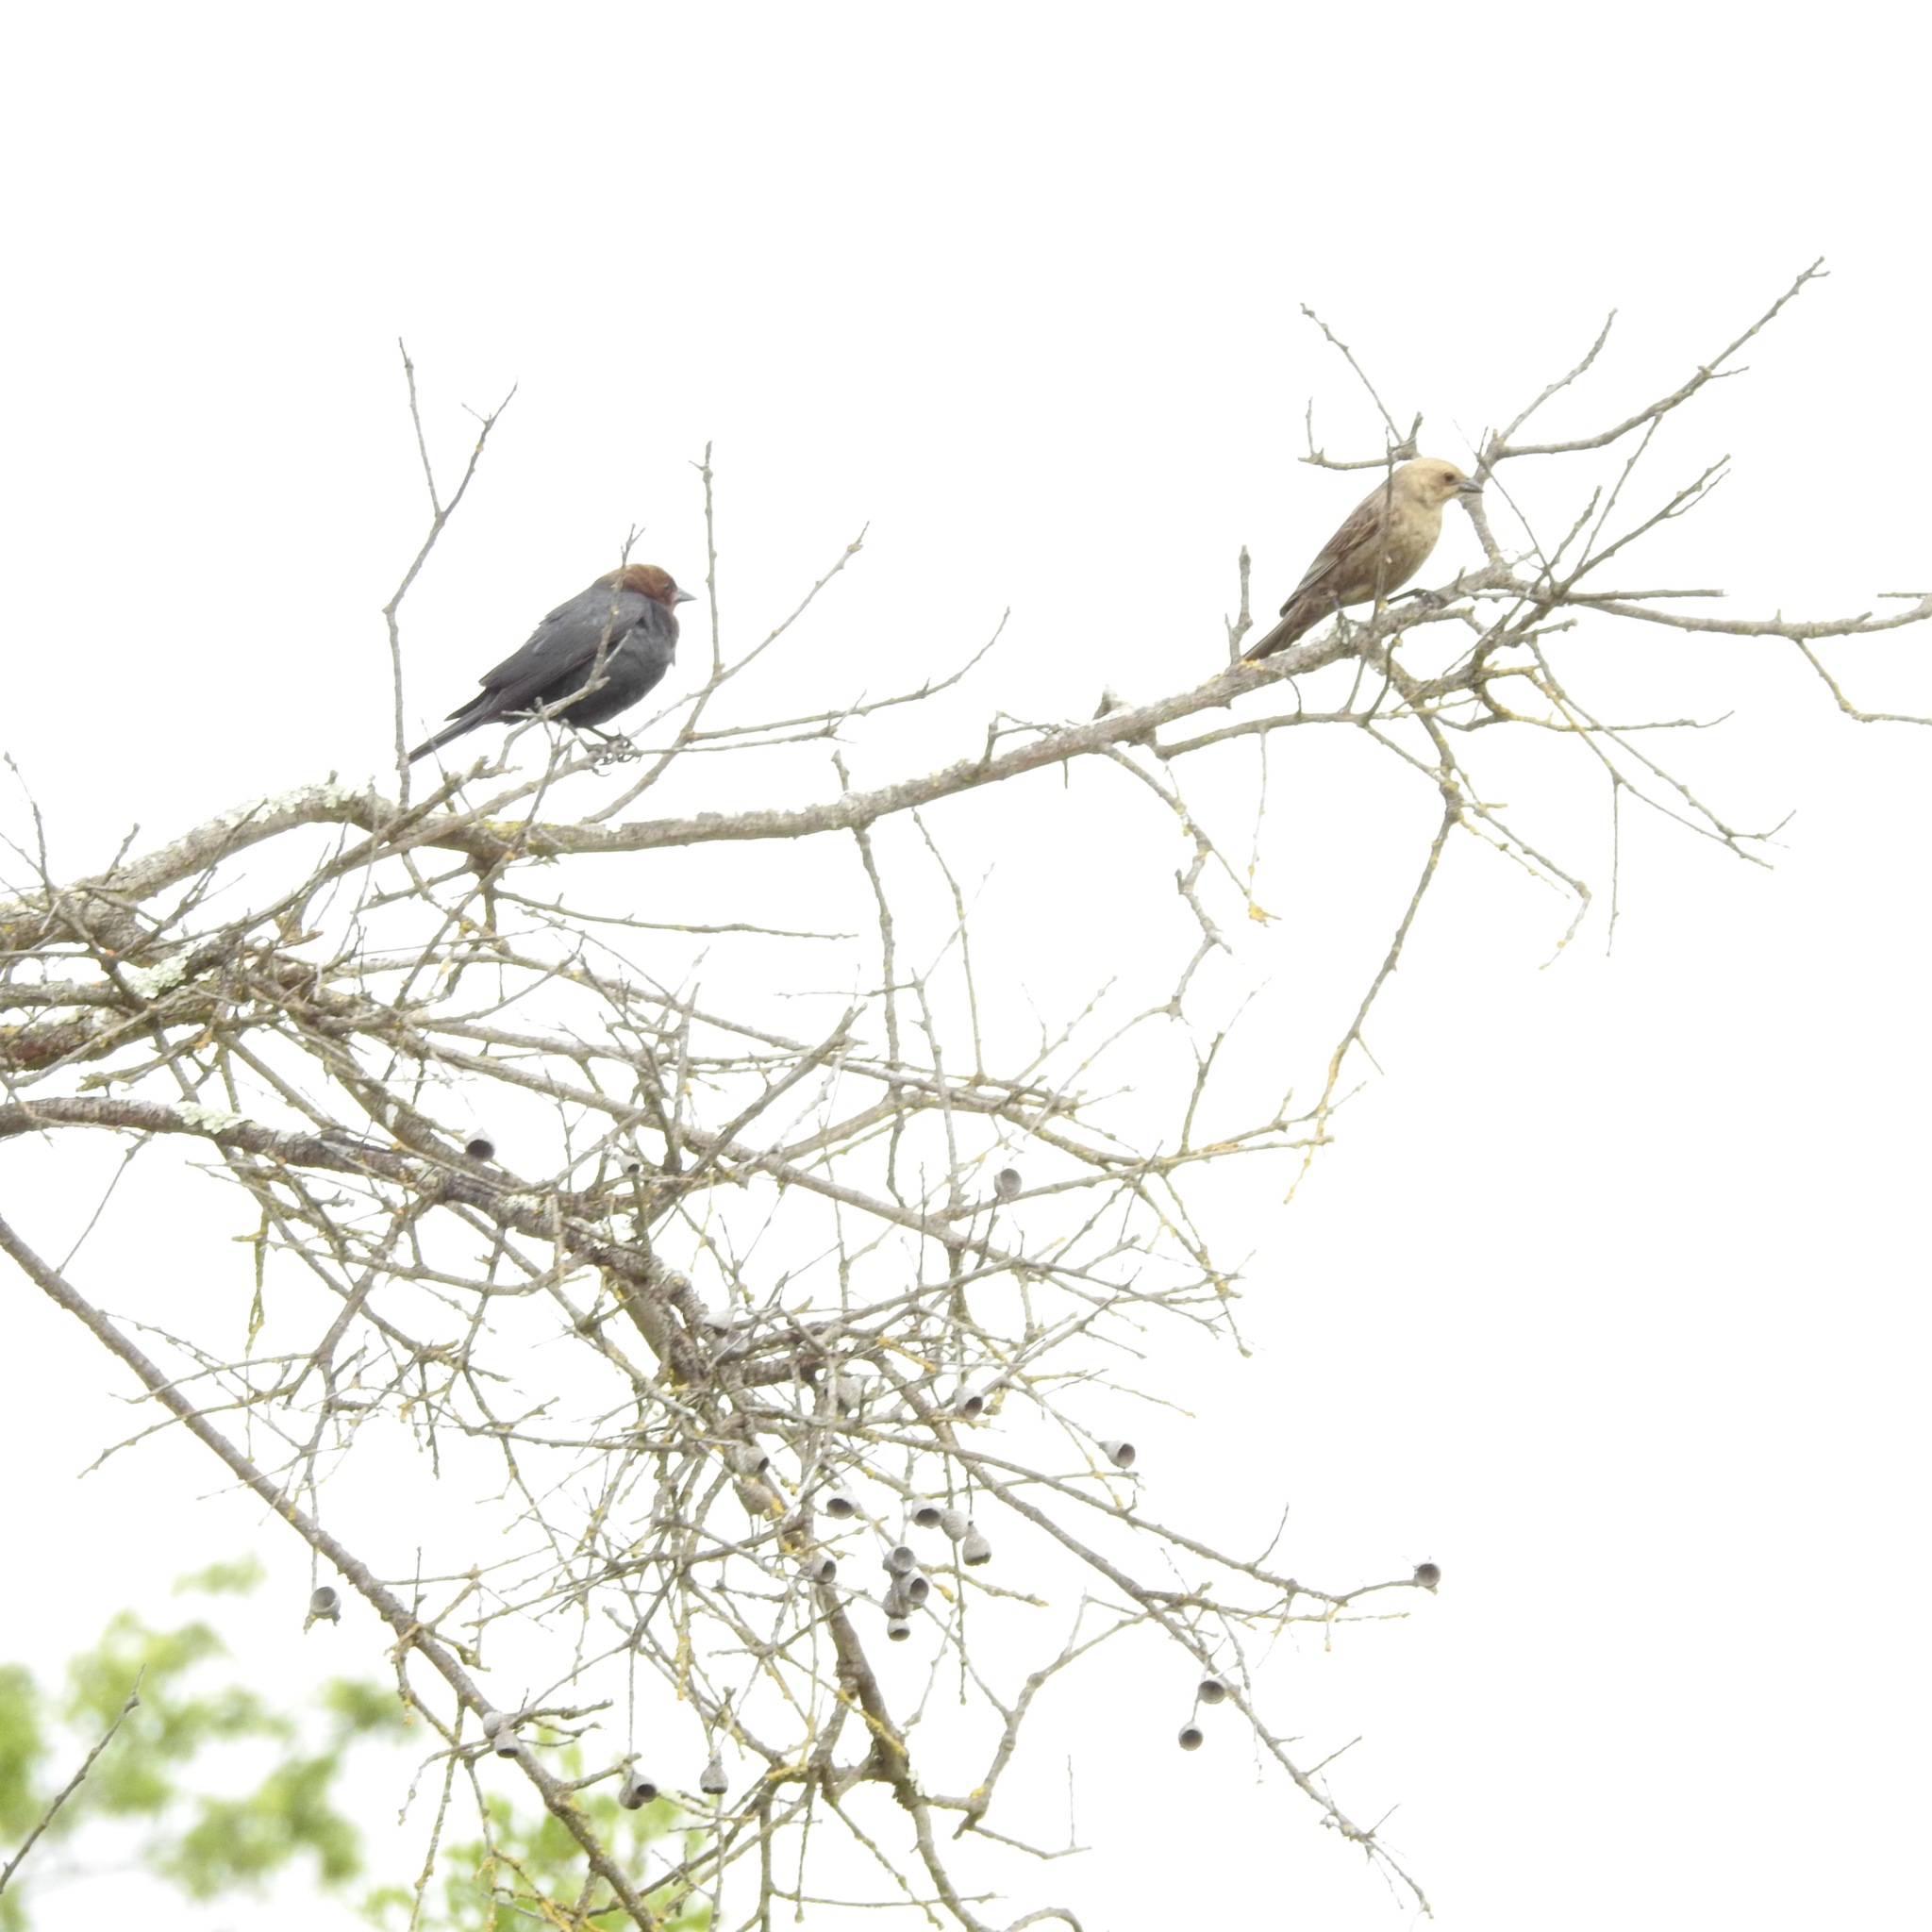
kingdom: Animalia
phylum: Chordata
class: Aves
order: Passeriformes
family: Icteridae
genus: Molothrus
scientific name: Molothrus ater
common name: Brown-headed cowbird
